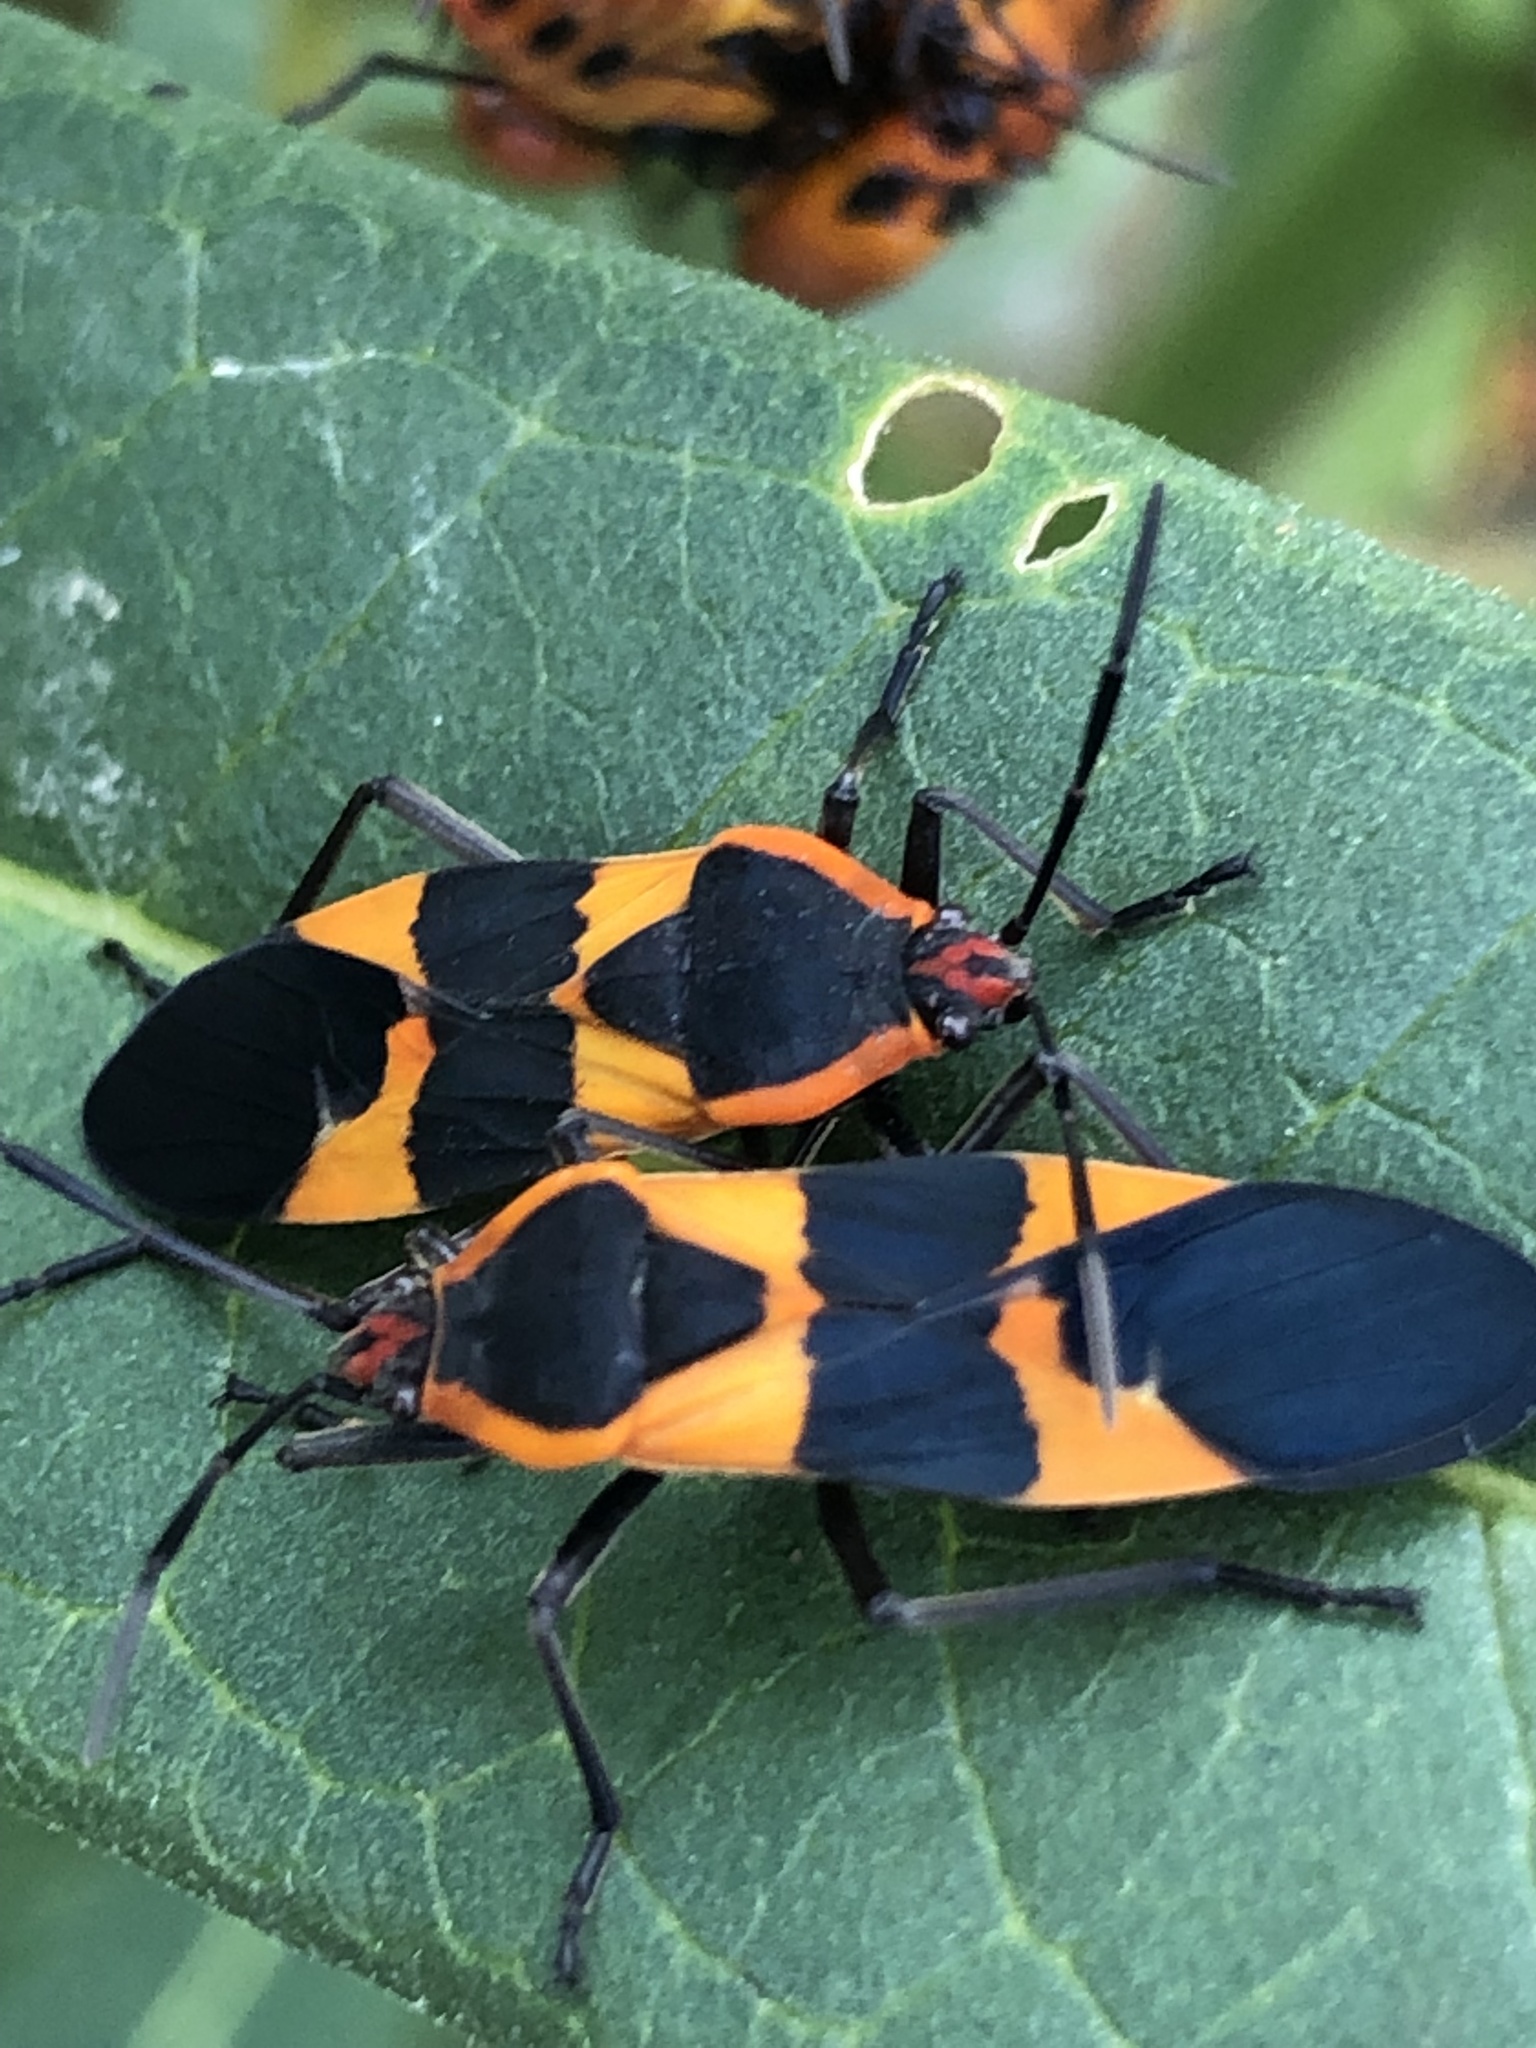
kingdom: Animalia
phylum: Arthropoda
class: Insecta
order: Hemiptera
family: Lygaeidae
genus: Oncopeltus
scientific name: Oncopeltus fasciatus
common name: Large milkweed bug
